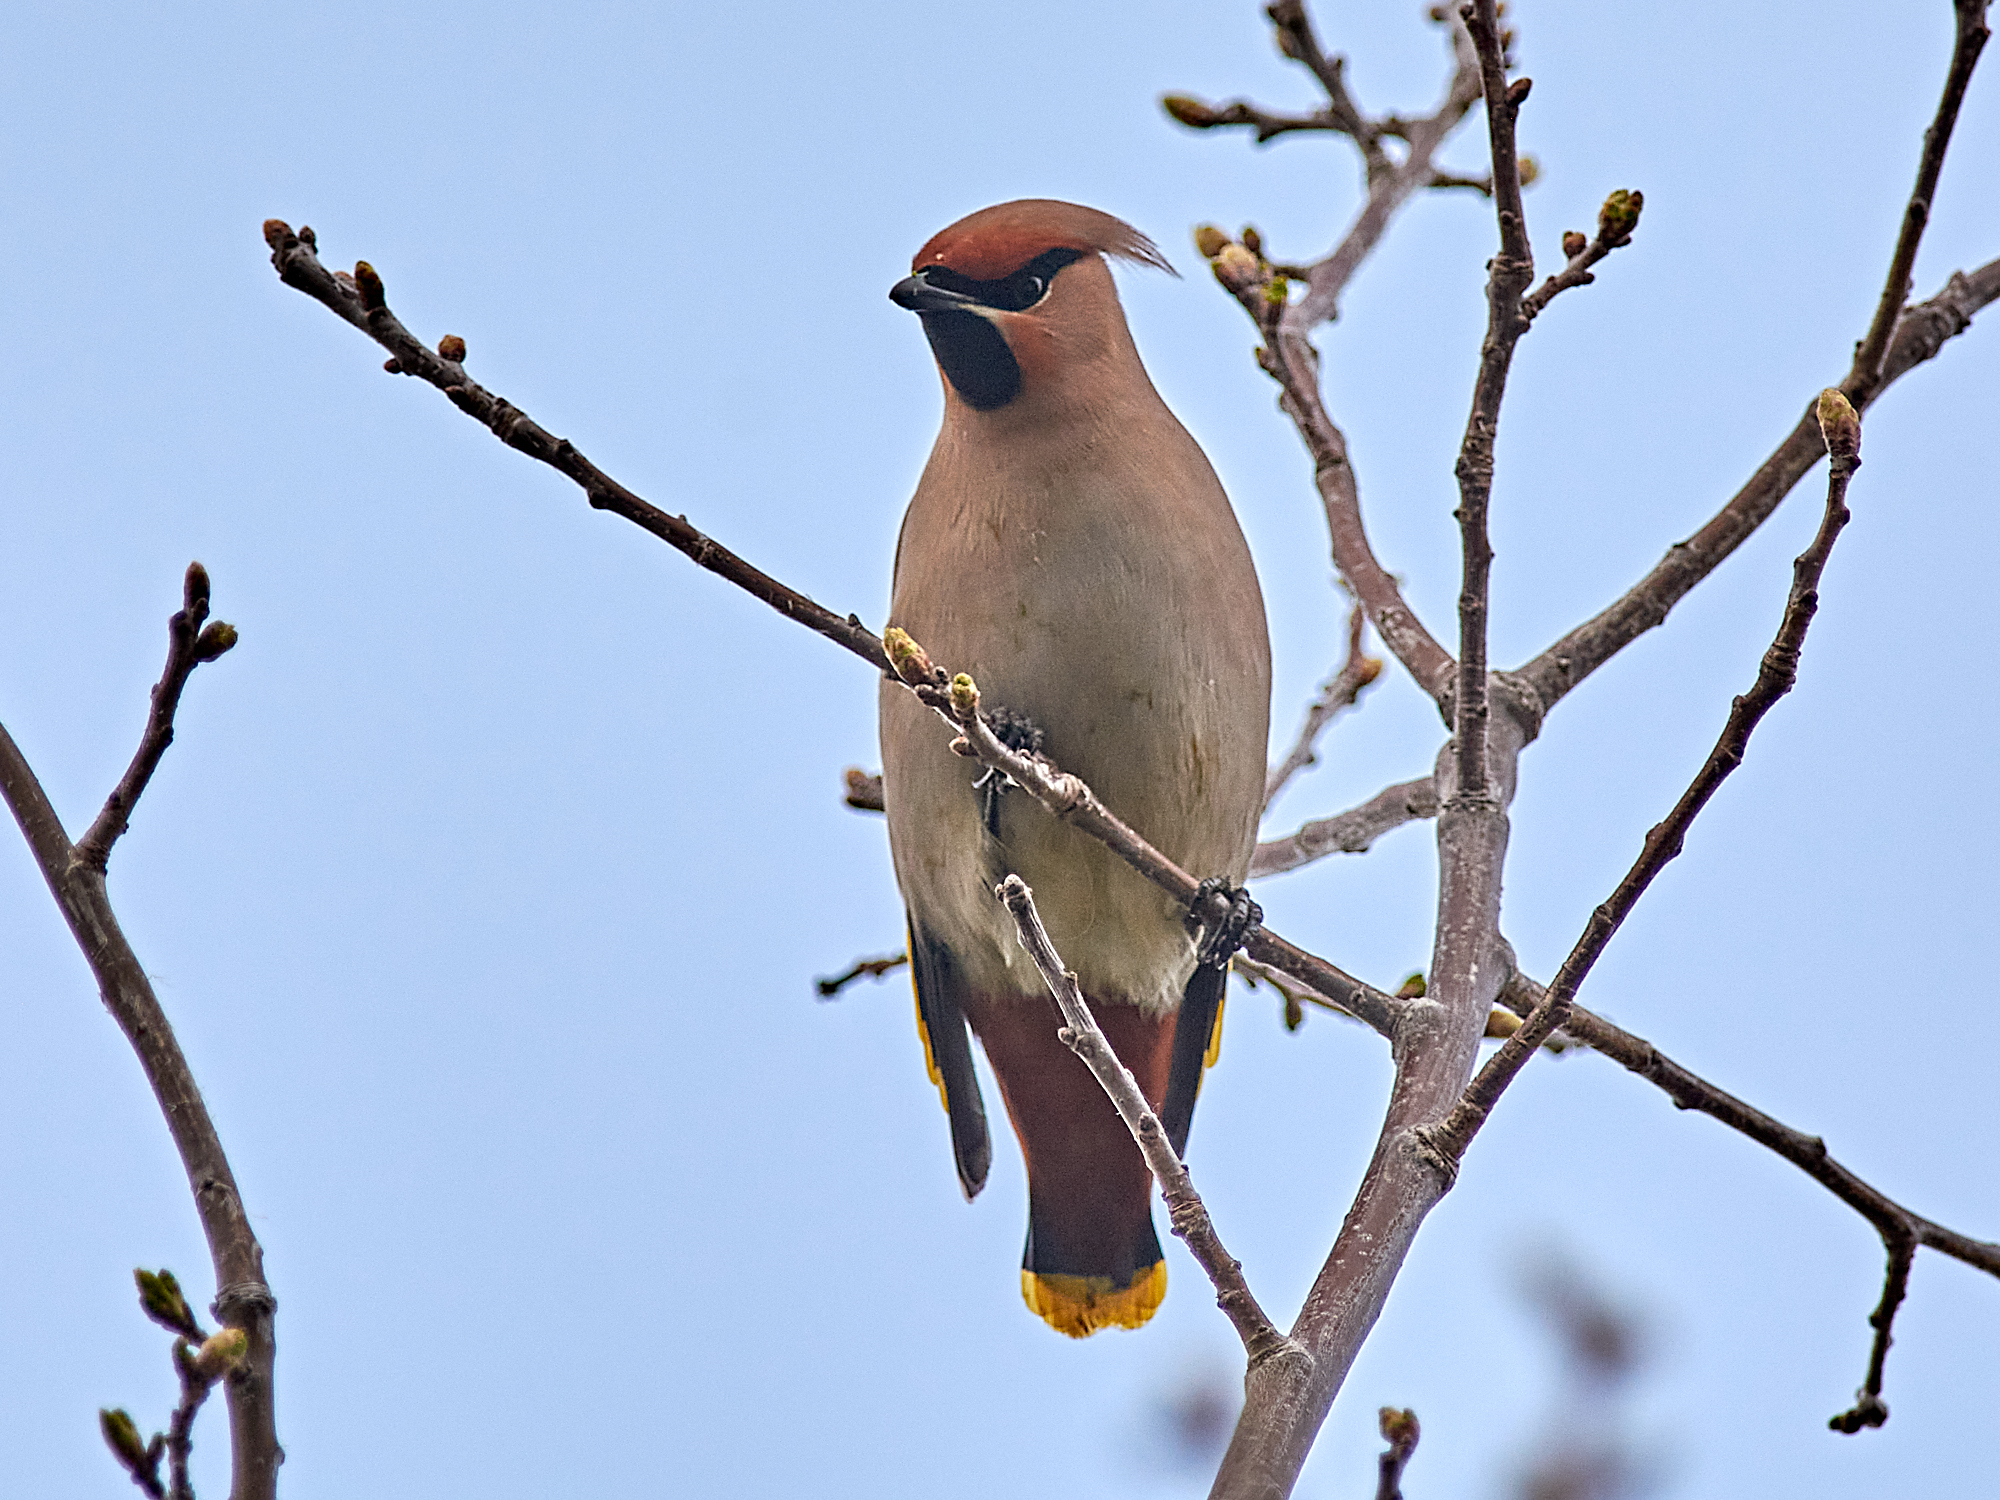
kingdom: Animalia
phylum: Chordata
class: Aves
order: Passeriformes
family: Bombycillidae
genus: Bombycilla
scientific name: Bombycilla garrulus
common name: Bohemian waxwing
